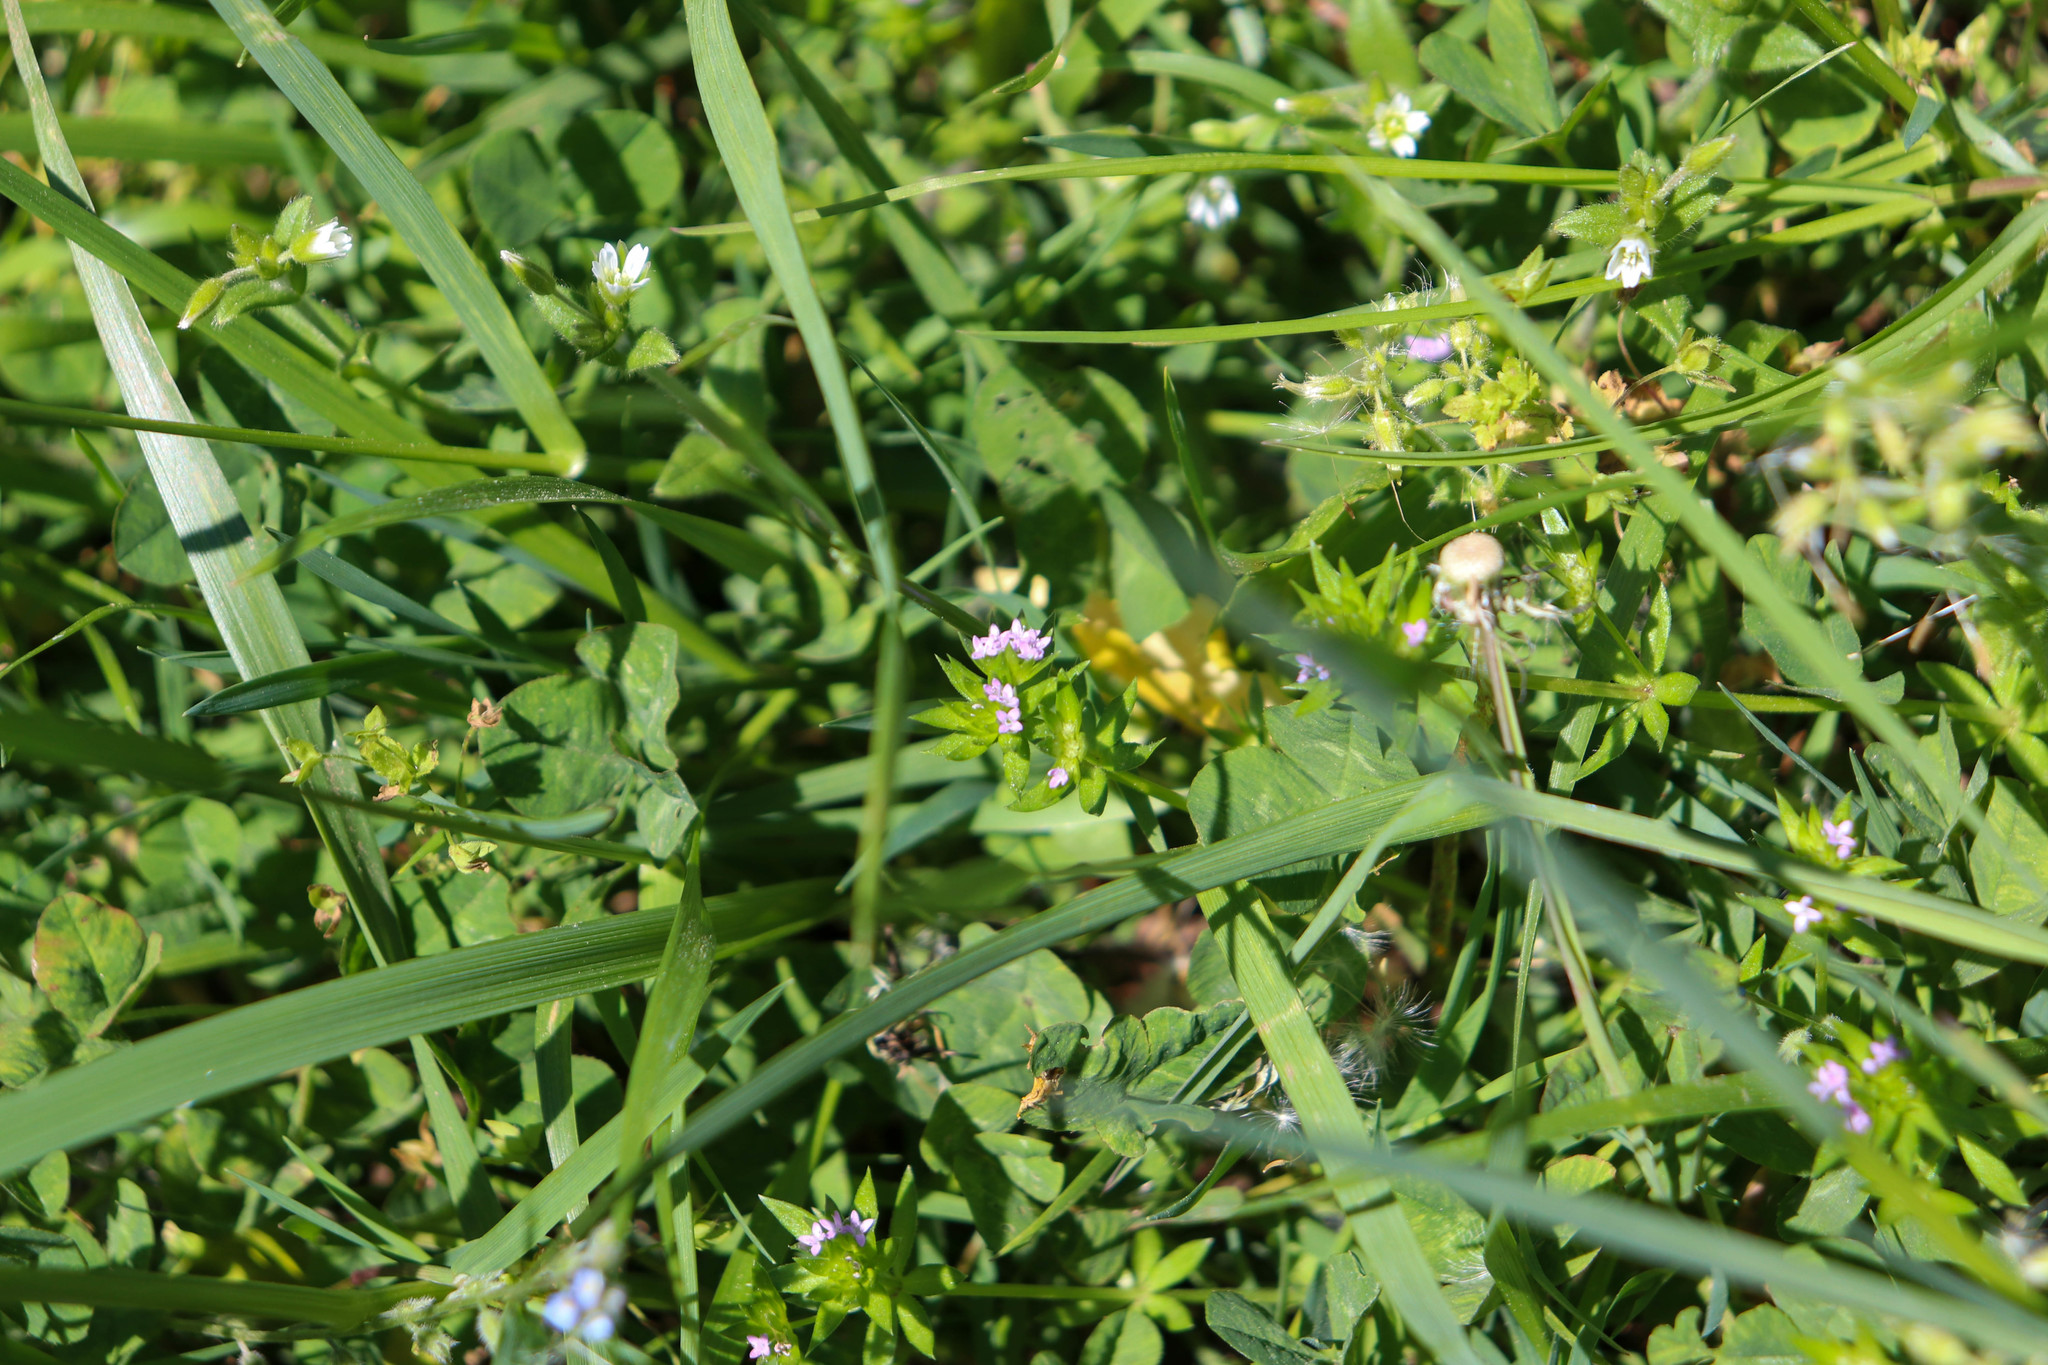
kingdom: Plantae
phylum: Tracheophyta
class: Magnoliopsida
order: Gentianales
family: Rubiaceae
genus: Sherardia
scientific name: Sherardia arvensis
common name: Field madder
